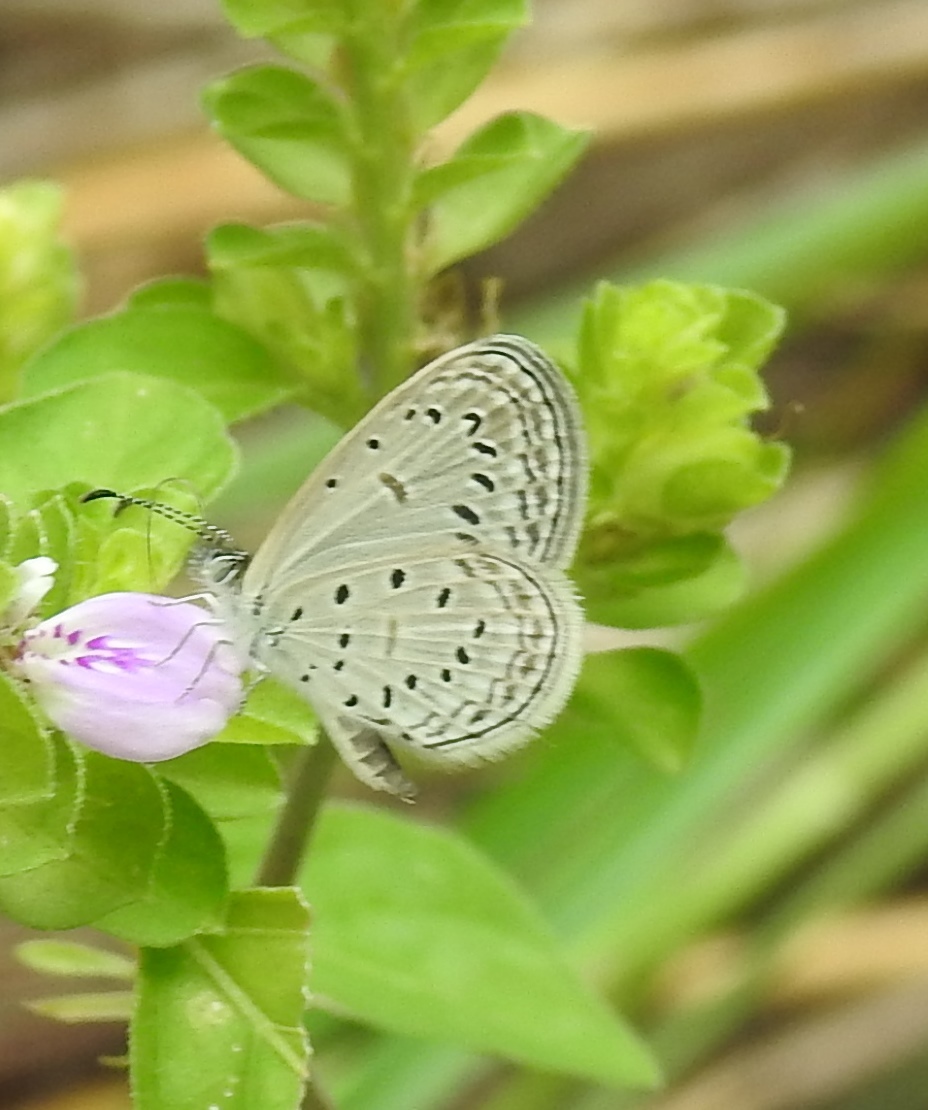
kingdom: Animalia
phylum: Arthropoda
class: Insecta
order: Lepidoptera
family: Lycaenidae
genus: Zizula
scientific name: Zizula hylax
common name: Gaika blue
